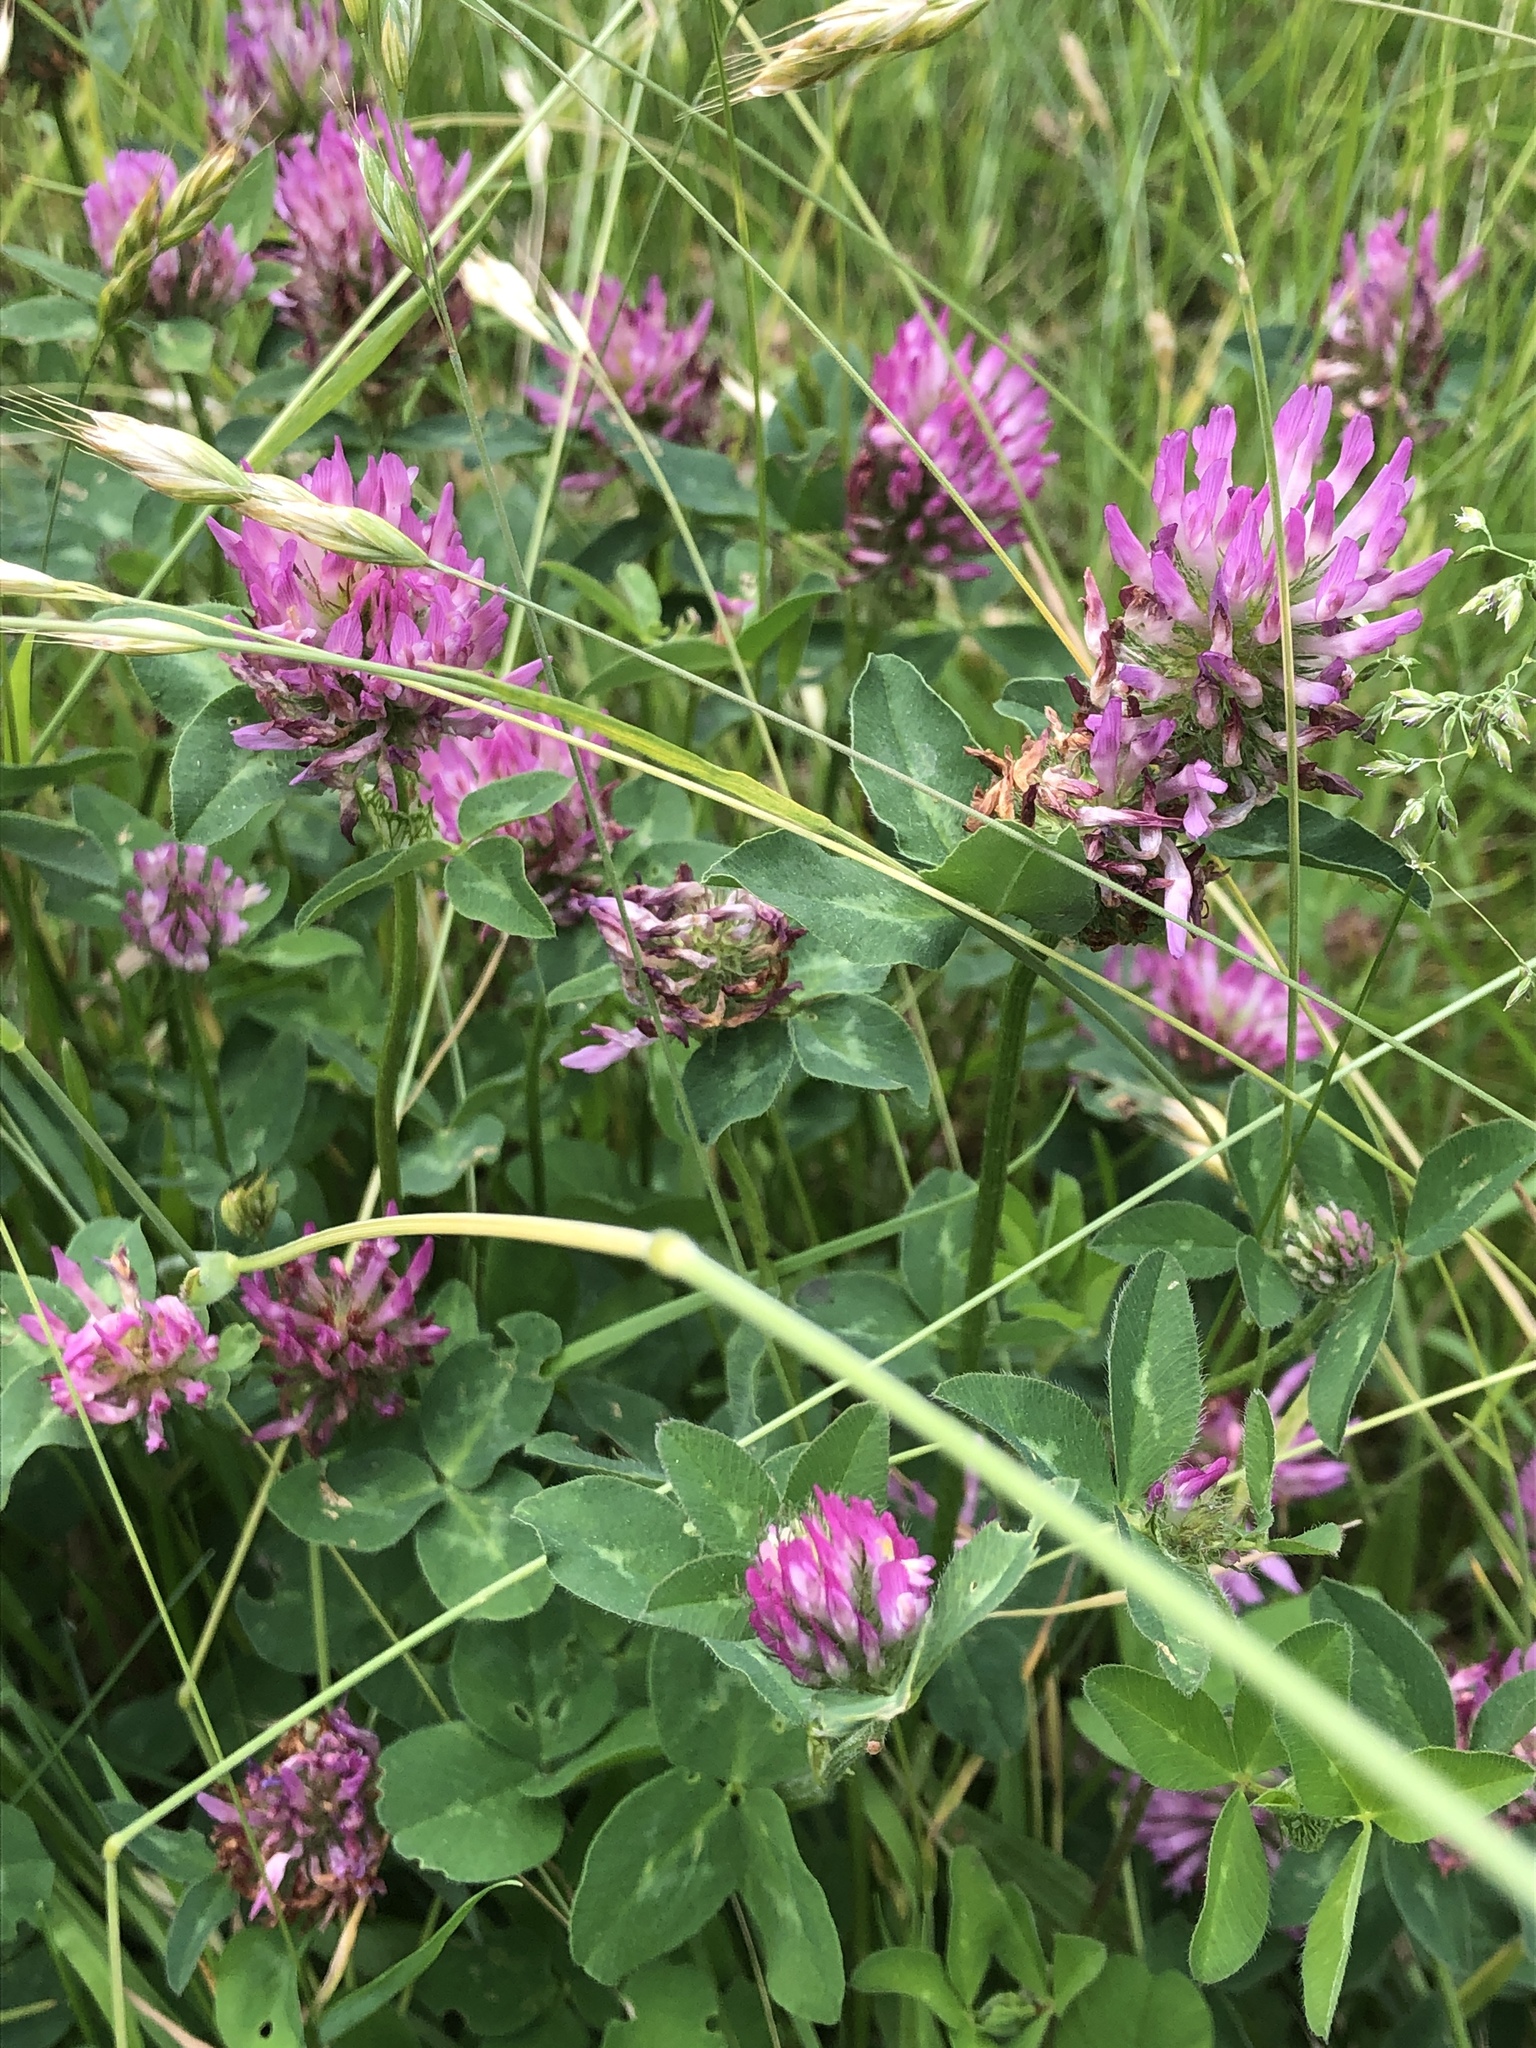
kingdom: Plantae
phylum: Tracheophyta
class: Magnoliopsida
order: Fabales
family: Fabaceae
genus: Trifolium
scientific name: Trifolium pratense
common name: Red clover
